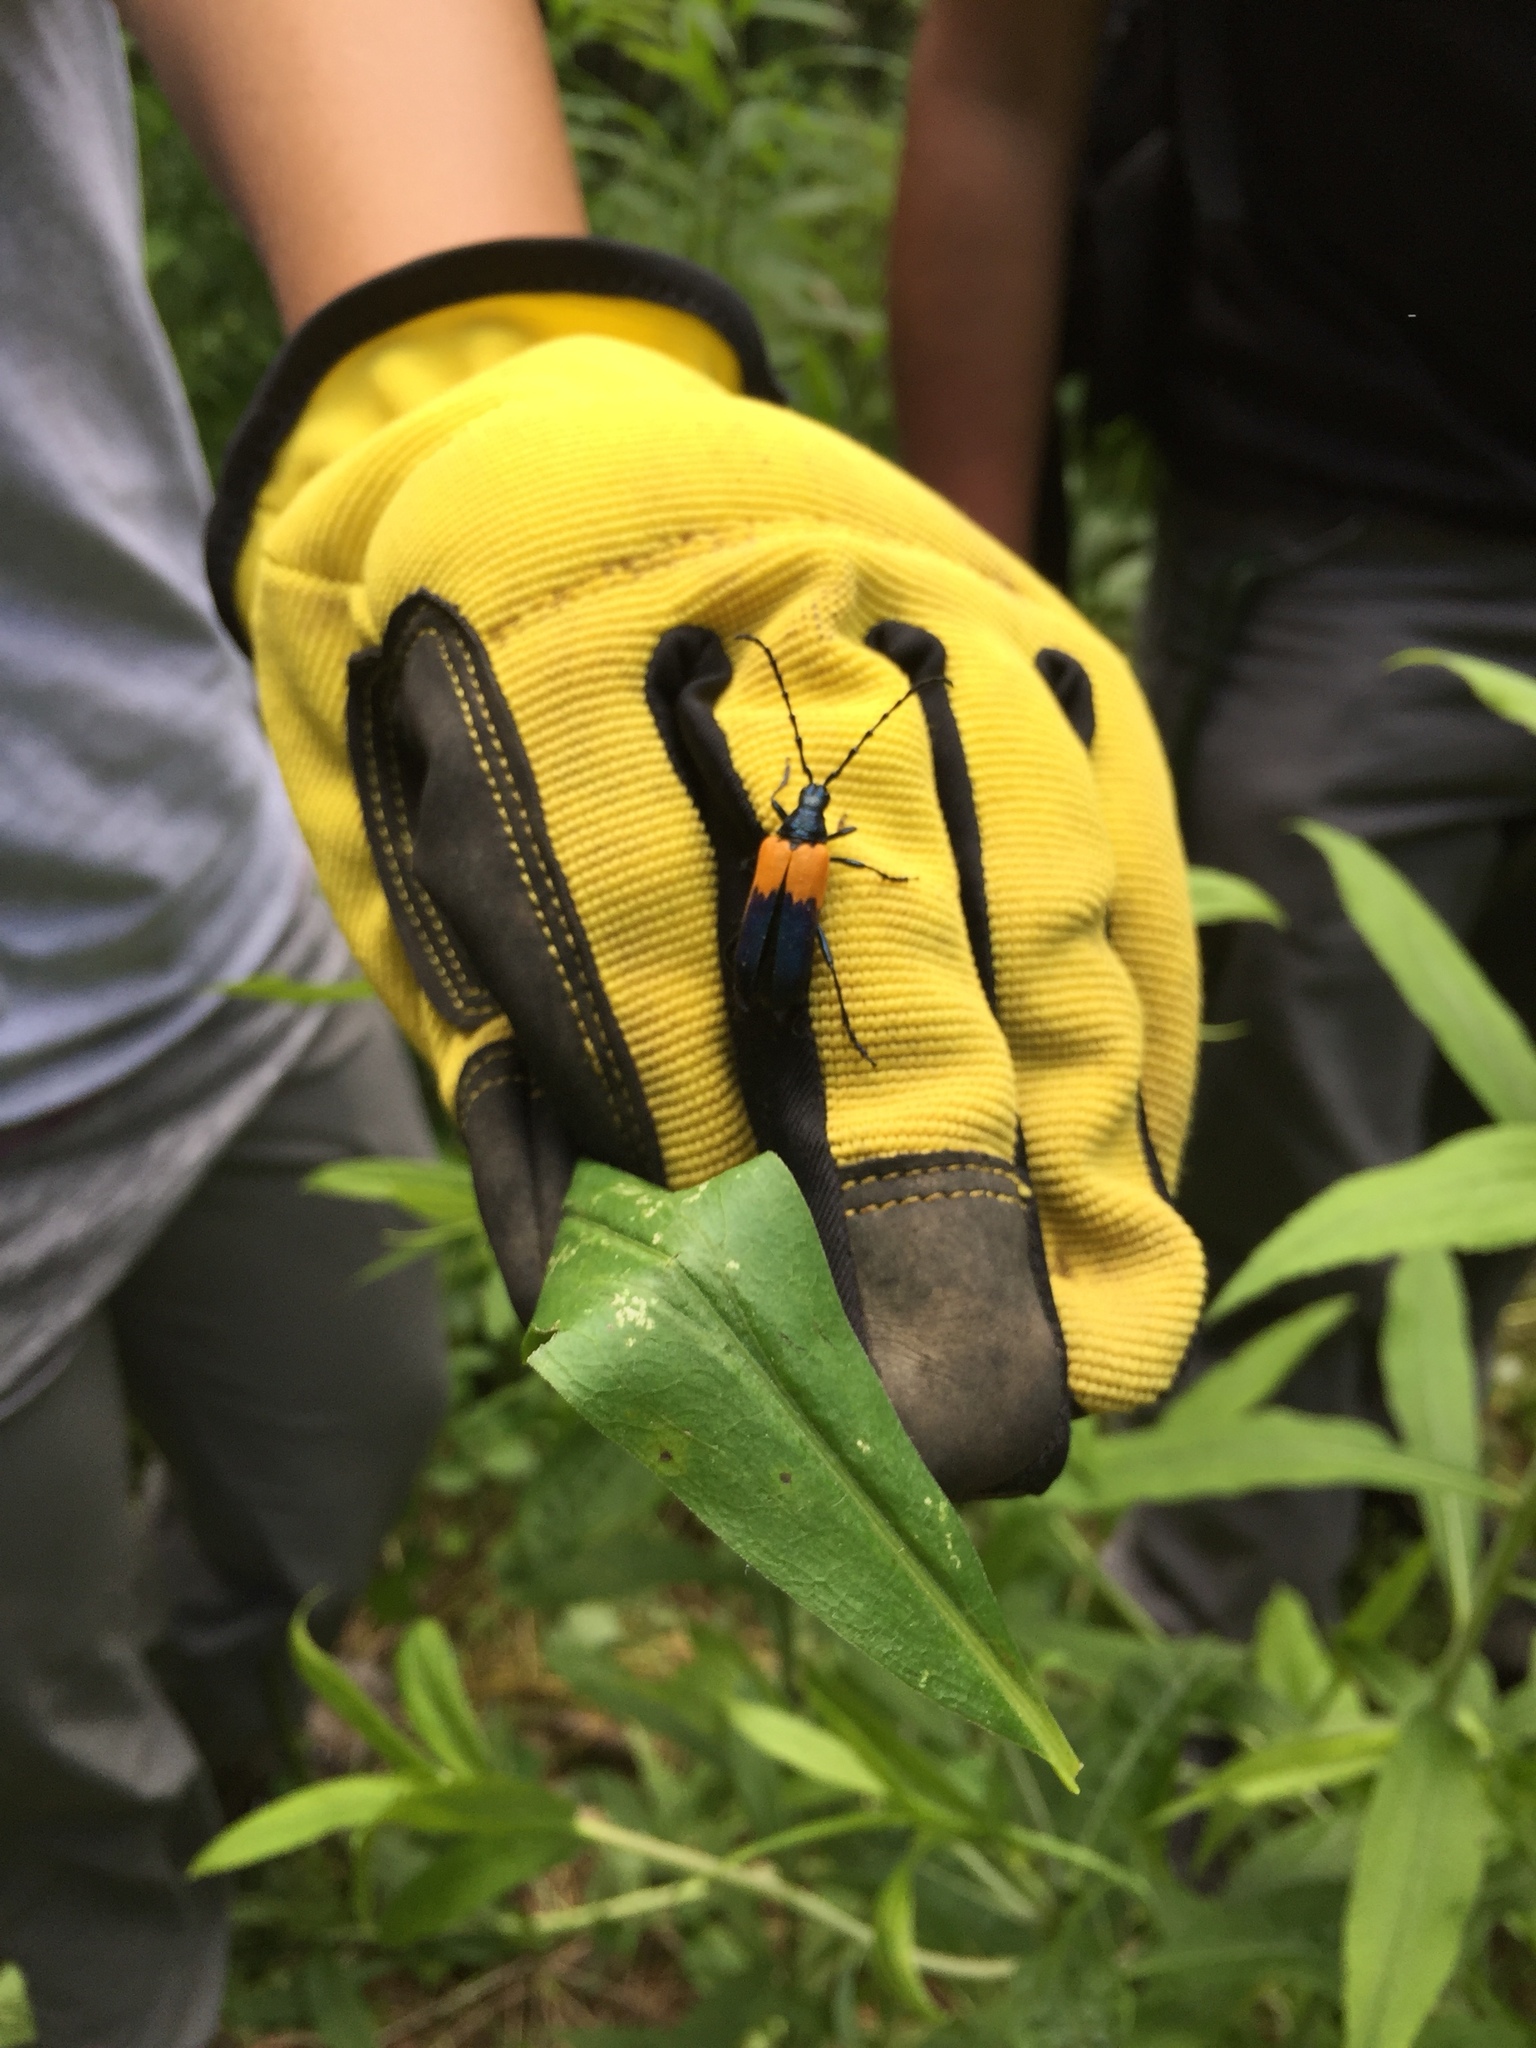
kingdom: Animalia
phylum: Arthropoda
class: Insecta
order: Coleoptera
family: Cerambycidae
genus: Desmocerus
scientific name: Desmocerus palliatus
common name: Eastern elderberry borer
